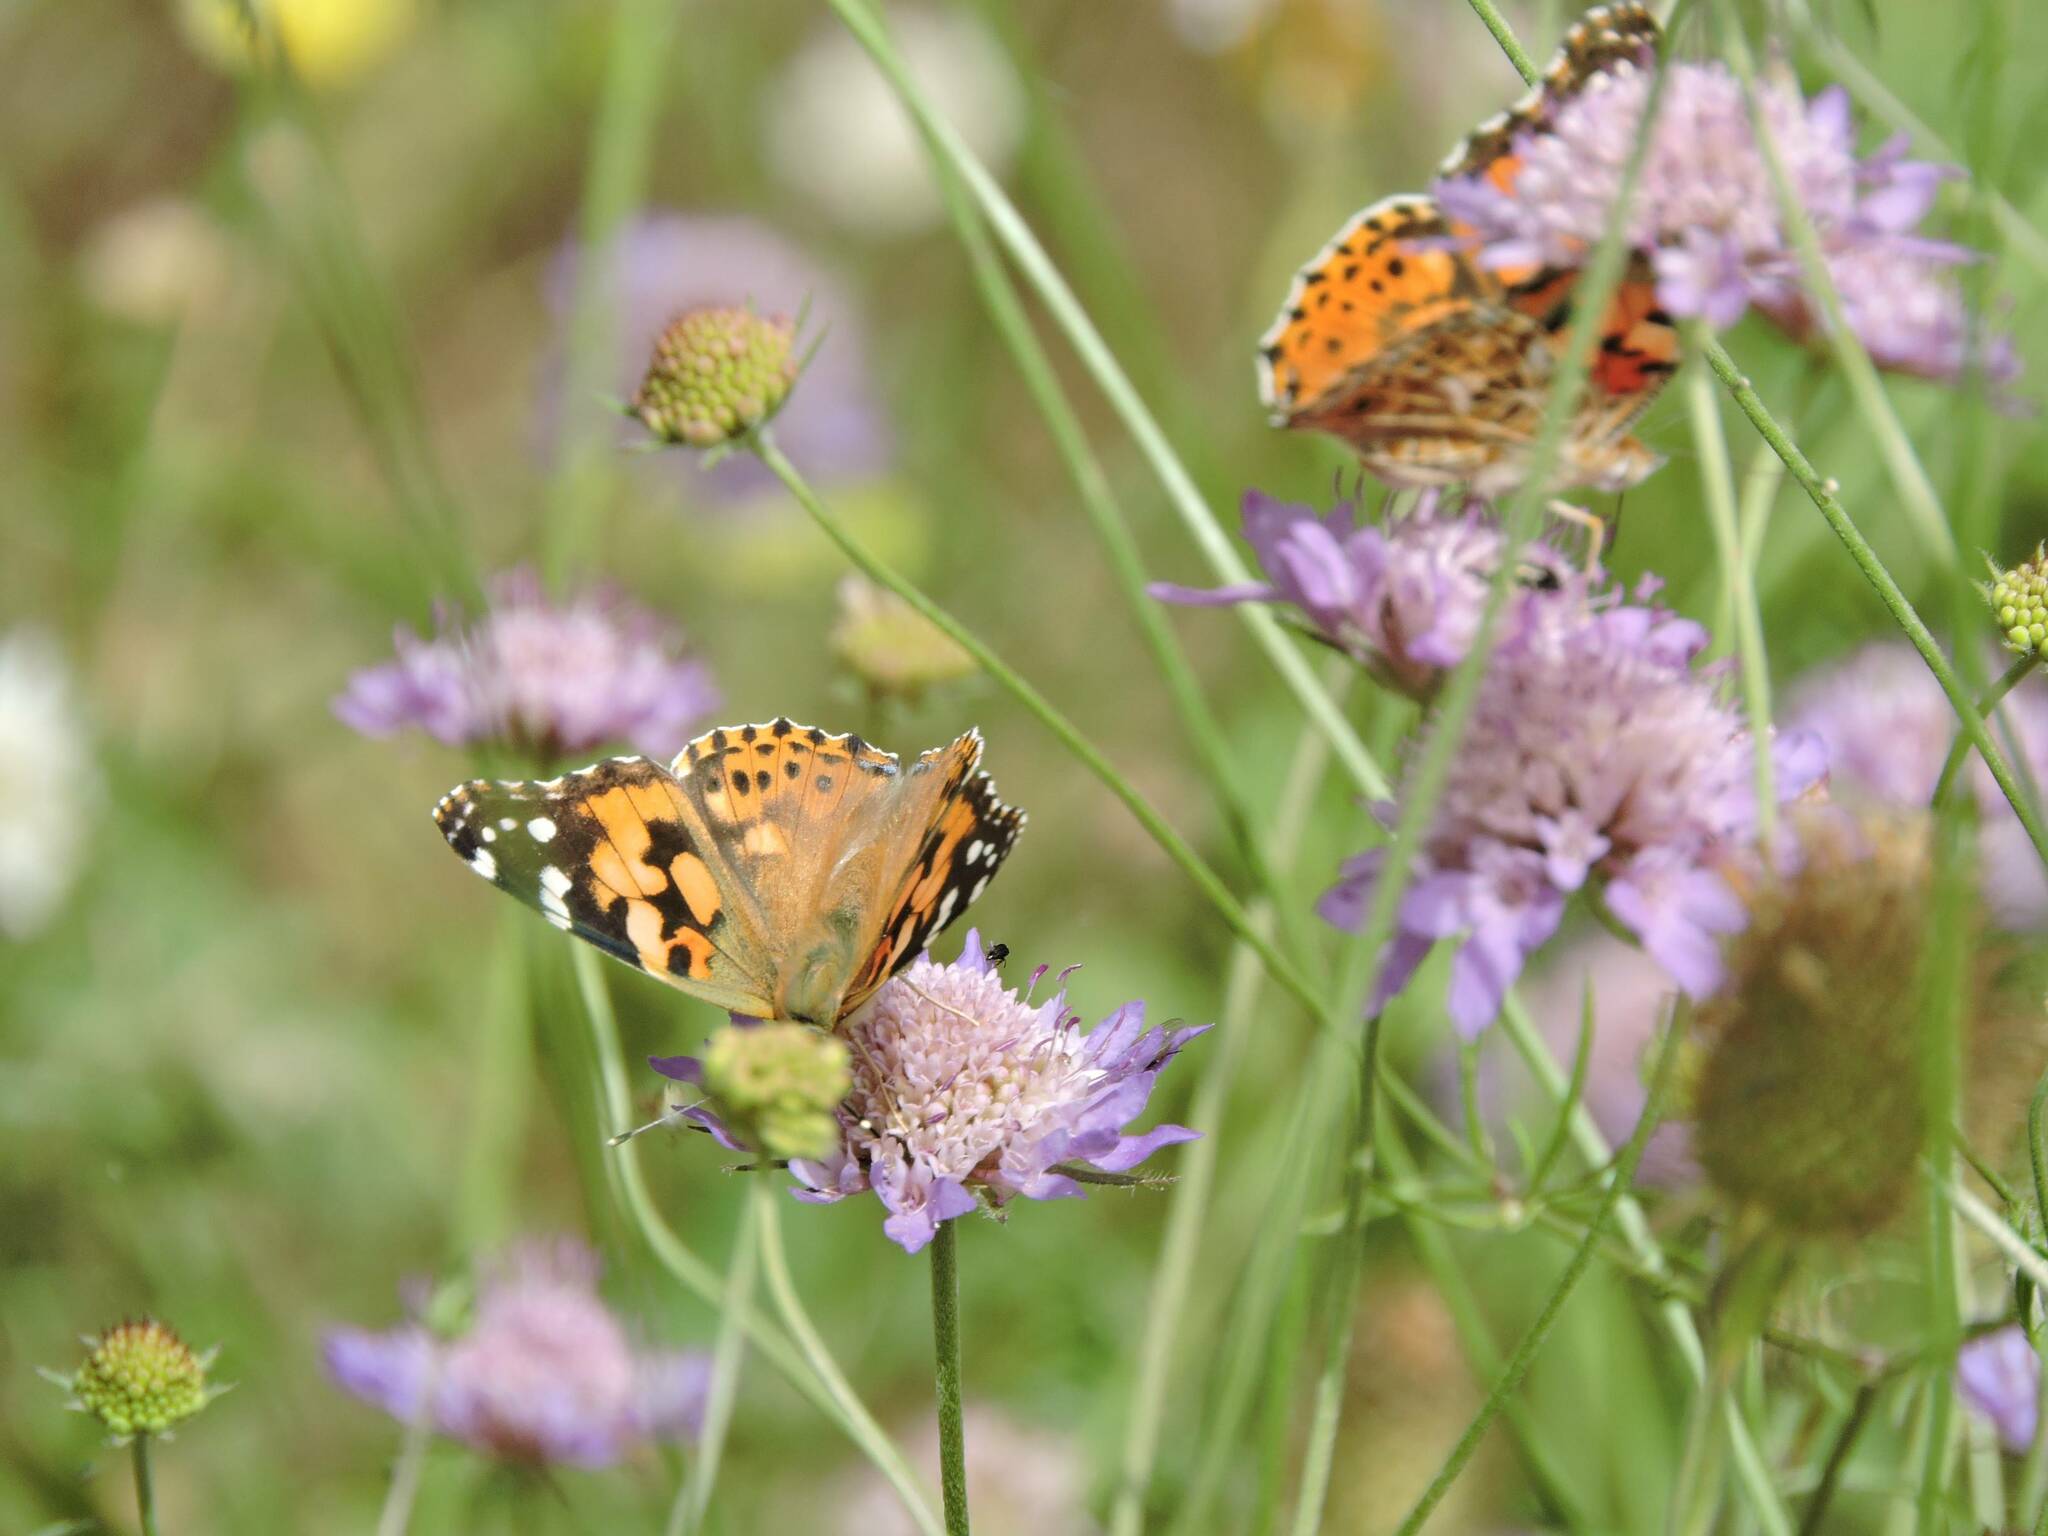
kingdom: Animalia
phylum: Arthropoda
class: Insecta
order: Lepidoptera
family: Nymphalidae
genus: Vanessa
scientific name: Vanessa cardui
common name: Painted lady
